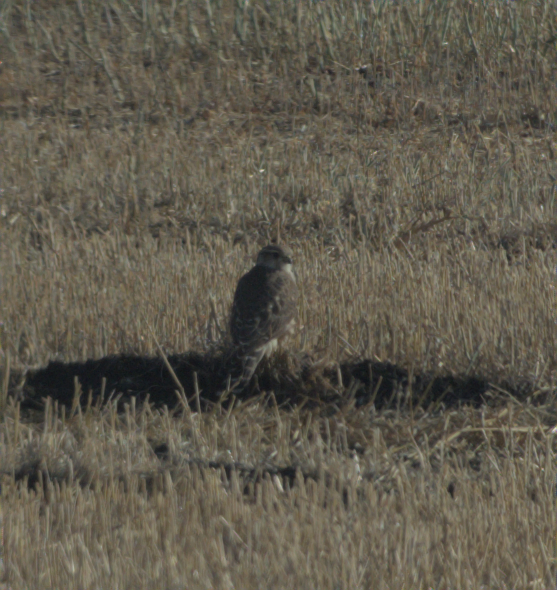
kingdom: Animalia
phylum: Chordata
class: Aves
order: Falconiformes
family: Falconidae
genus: Falco
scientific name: Falco columbarius
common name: Merlin
